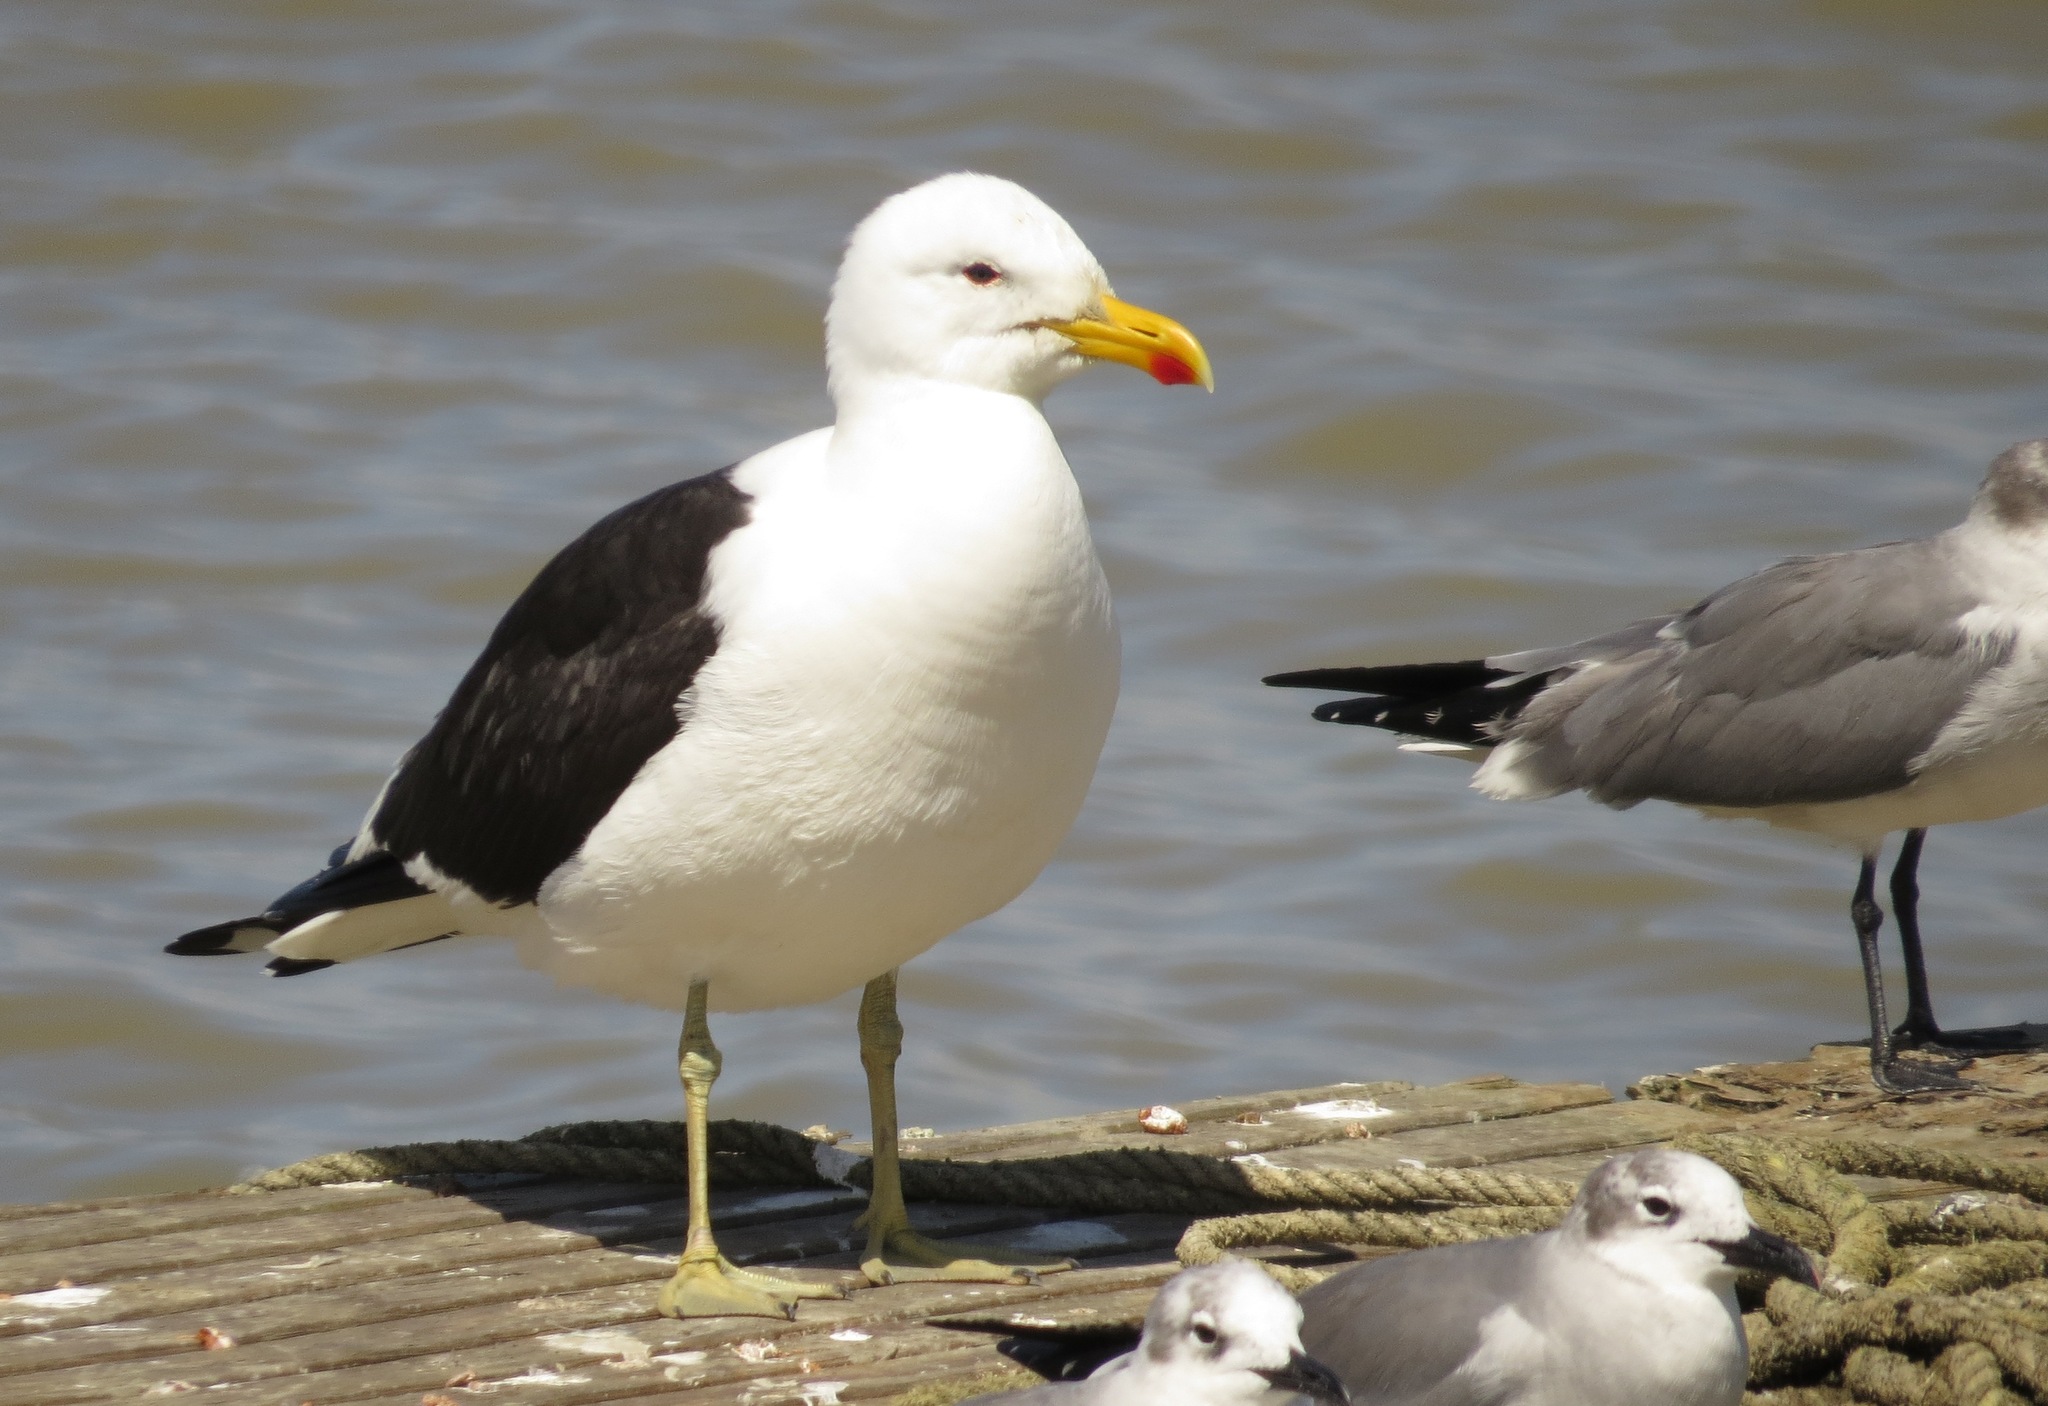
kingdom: Animalia
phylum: Chordata
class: Aves
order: Charadriiformes
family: Laridae
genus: Larus
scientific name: Larus dominicanus
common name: Kelp gull
